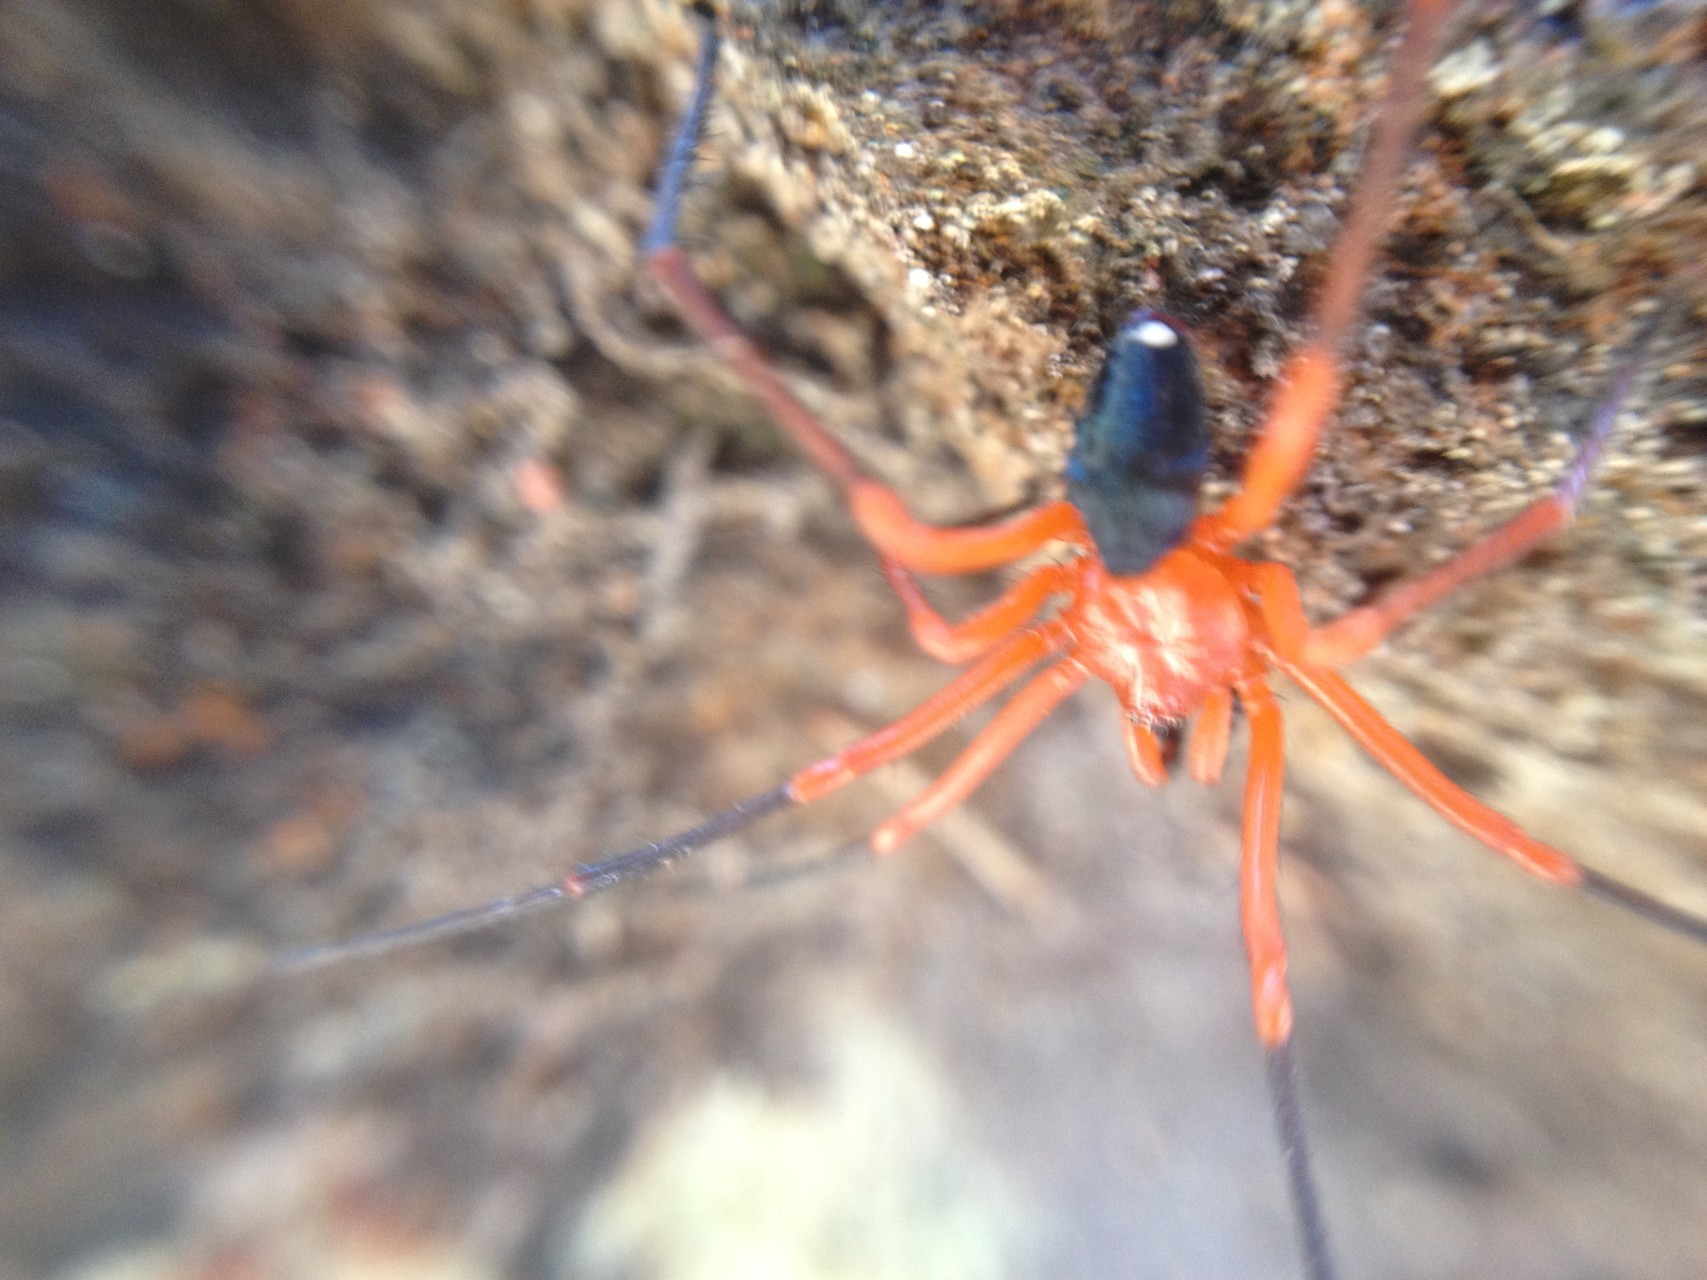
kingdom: Animalia
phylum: Arthropoda
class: Arachnida
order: Araneae
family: Nicodamidae
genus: Nicodamus
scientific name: Nicodamus peregrinus
